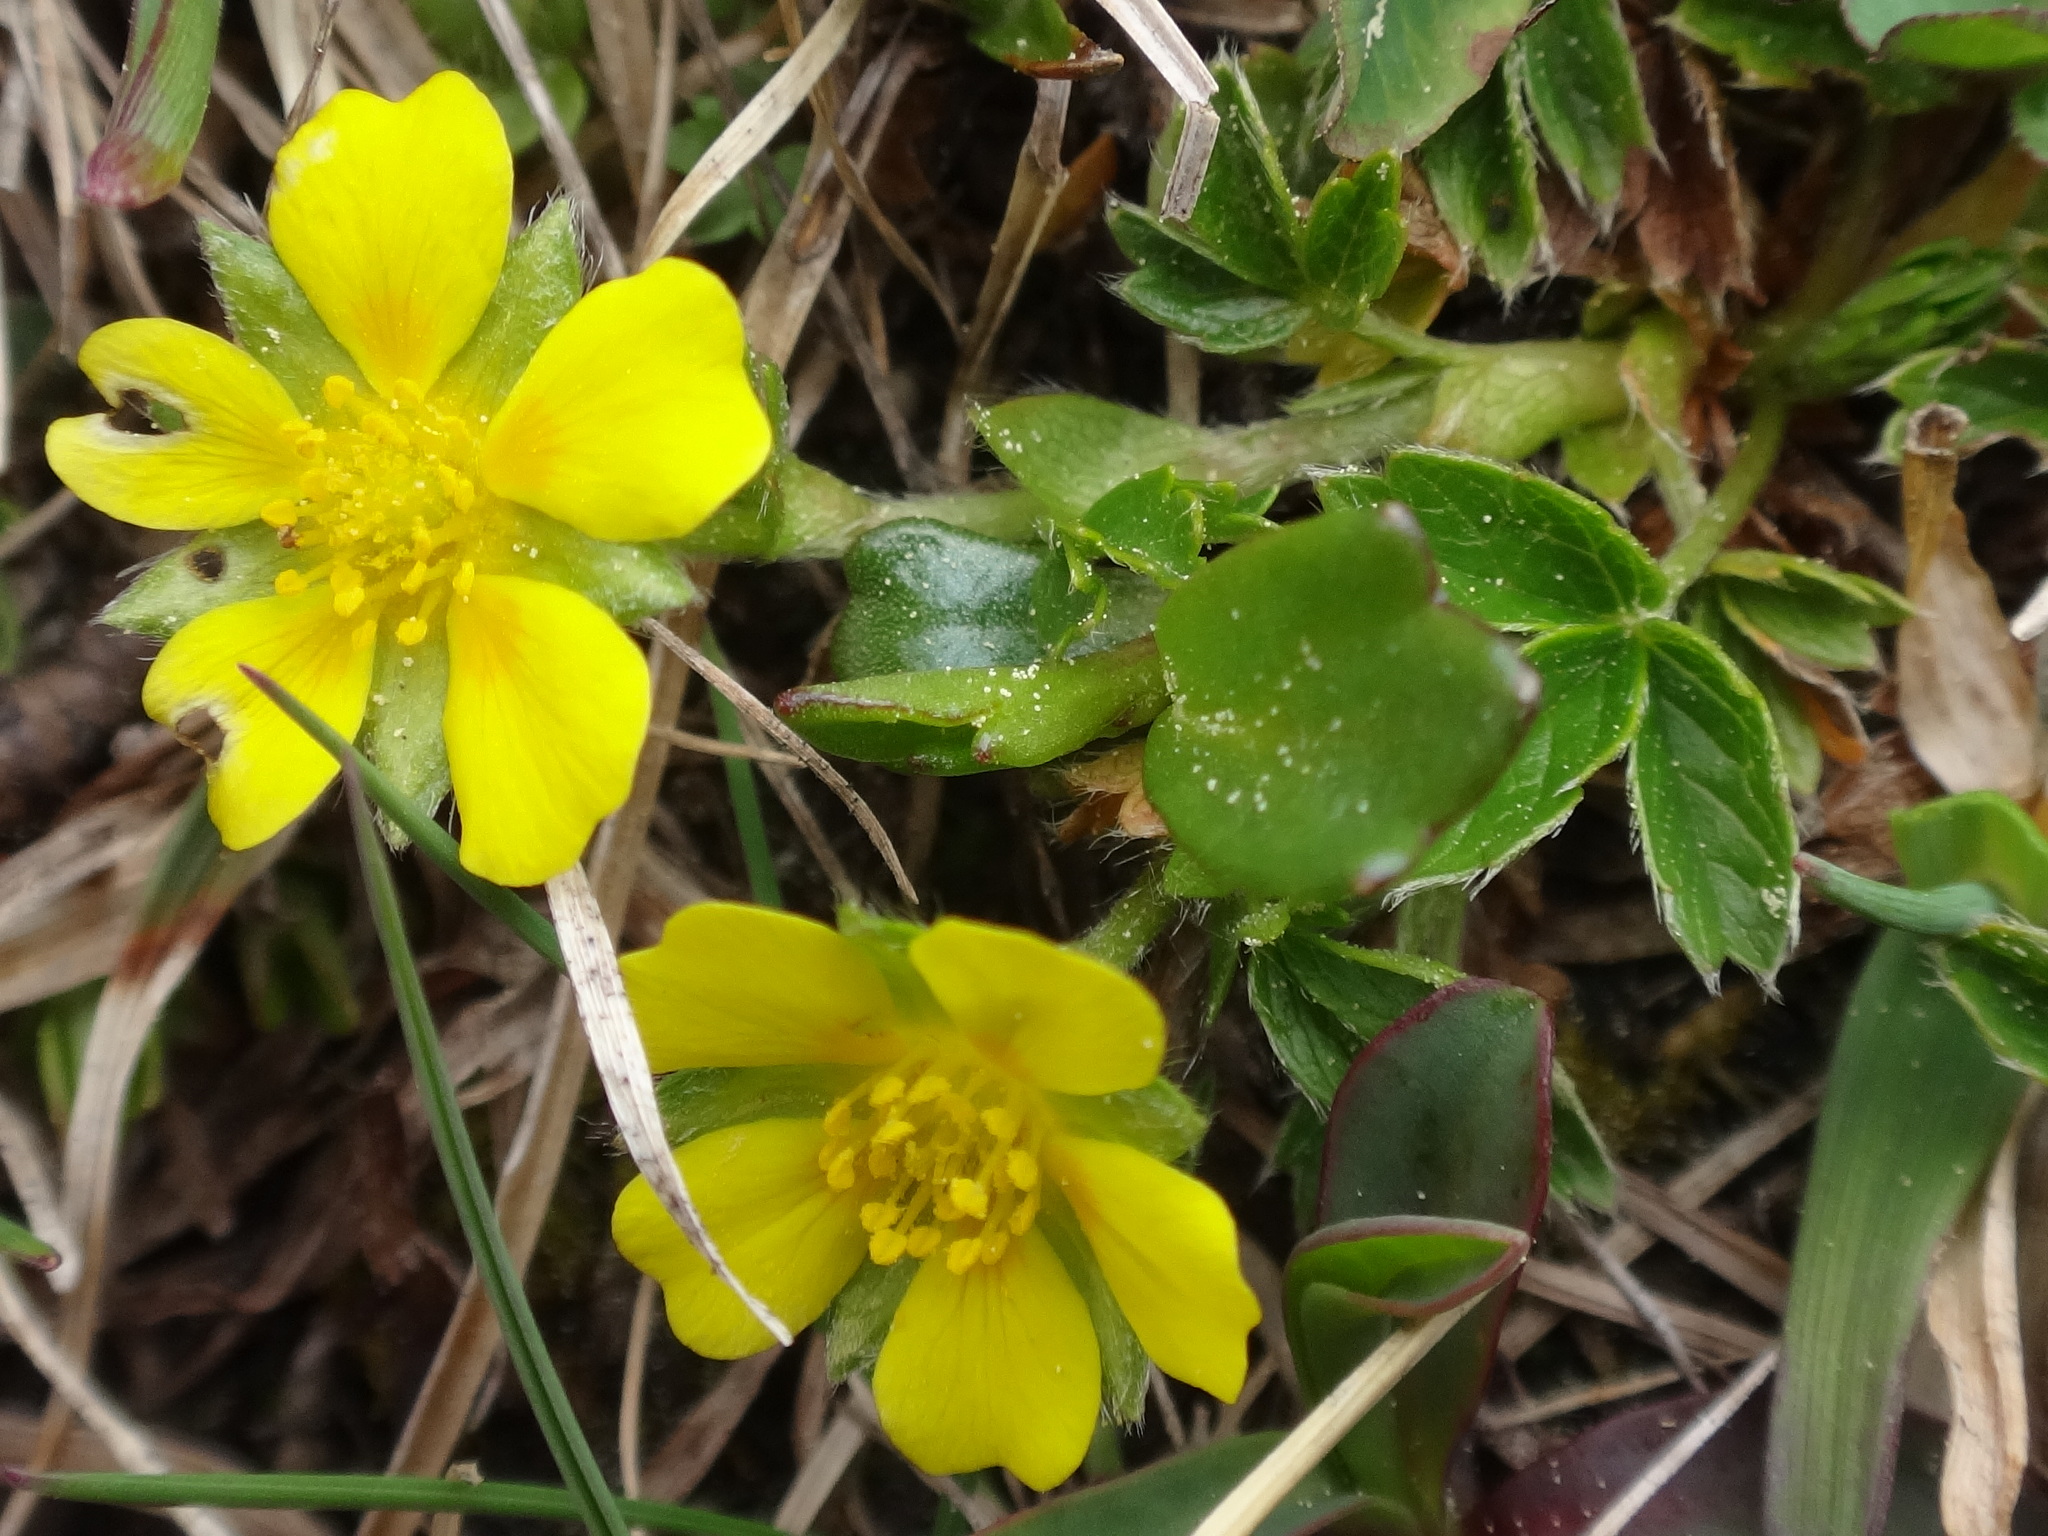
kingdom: Plantae
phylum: Tracheophyta
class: Magnoliopsida
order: Rosales
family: Rosaceae
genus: Potentilla
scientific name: Potentilla brauneana
